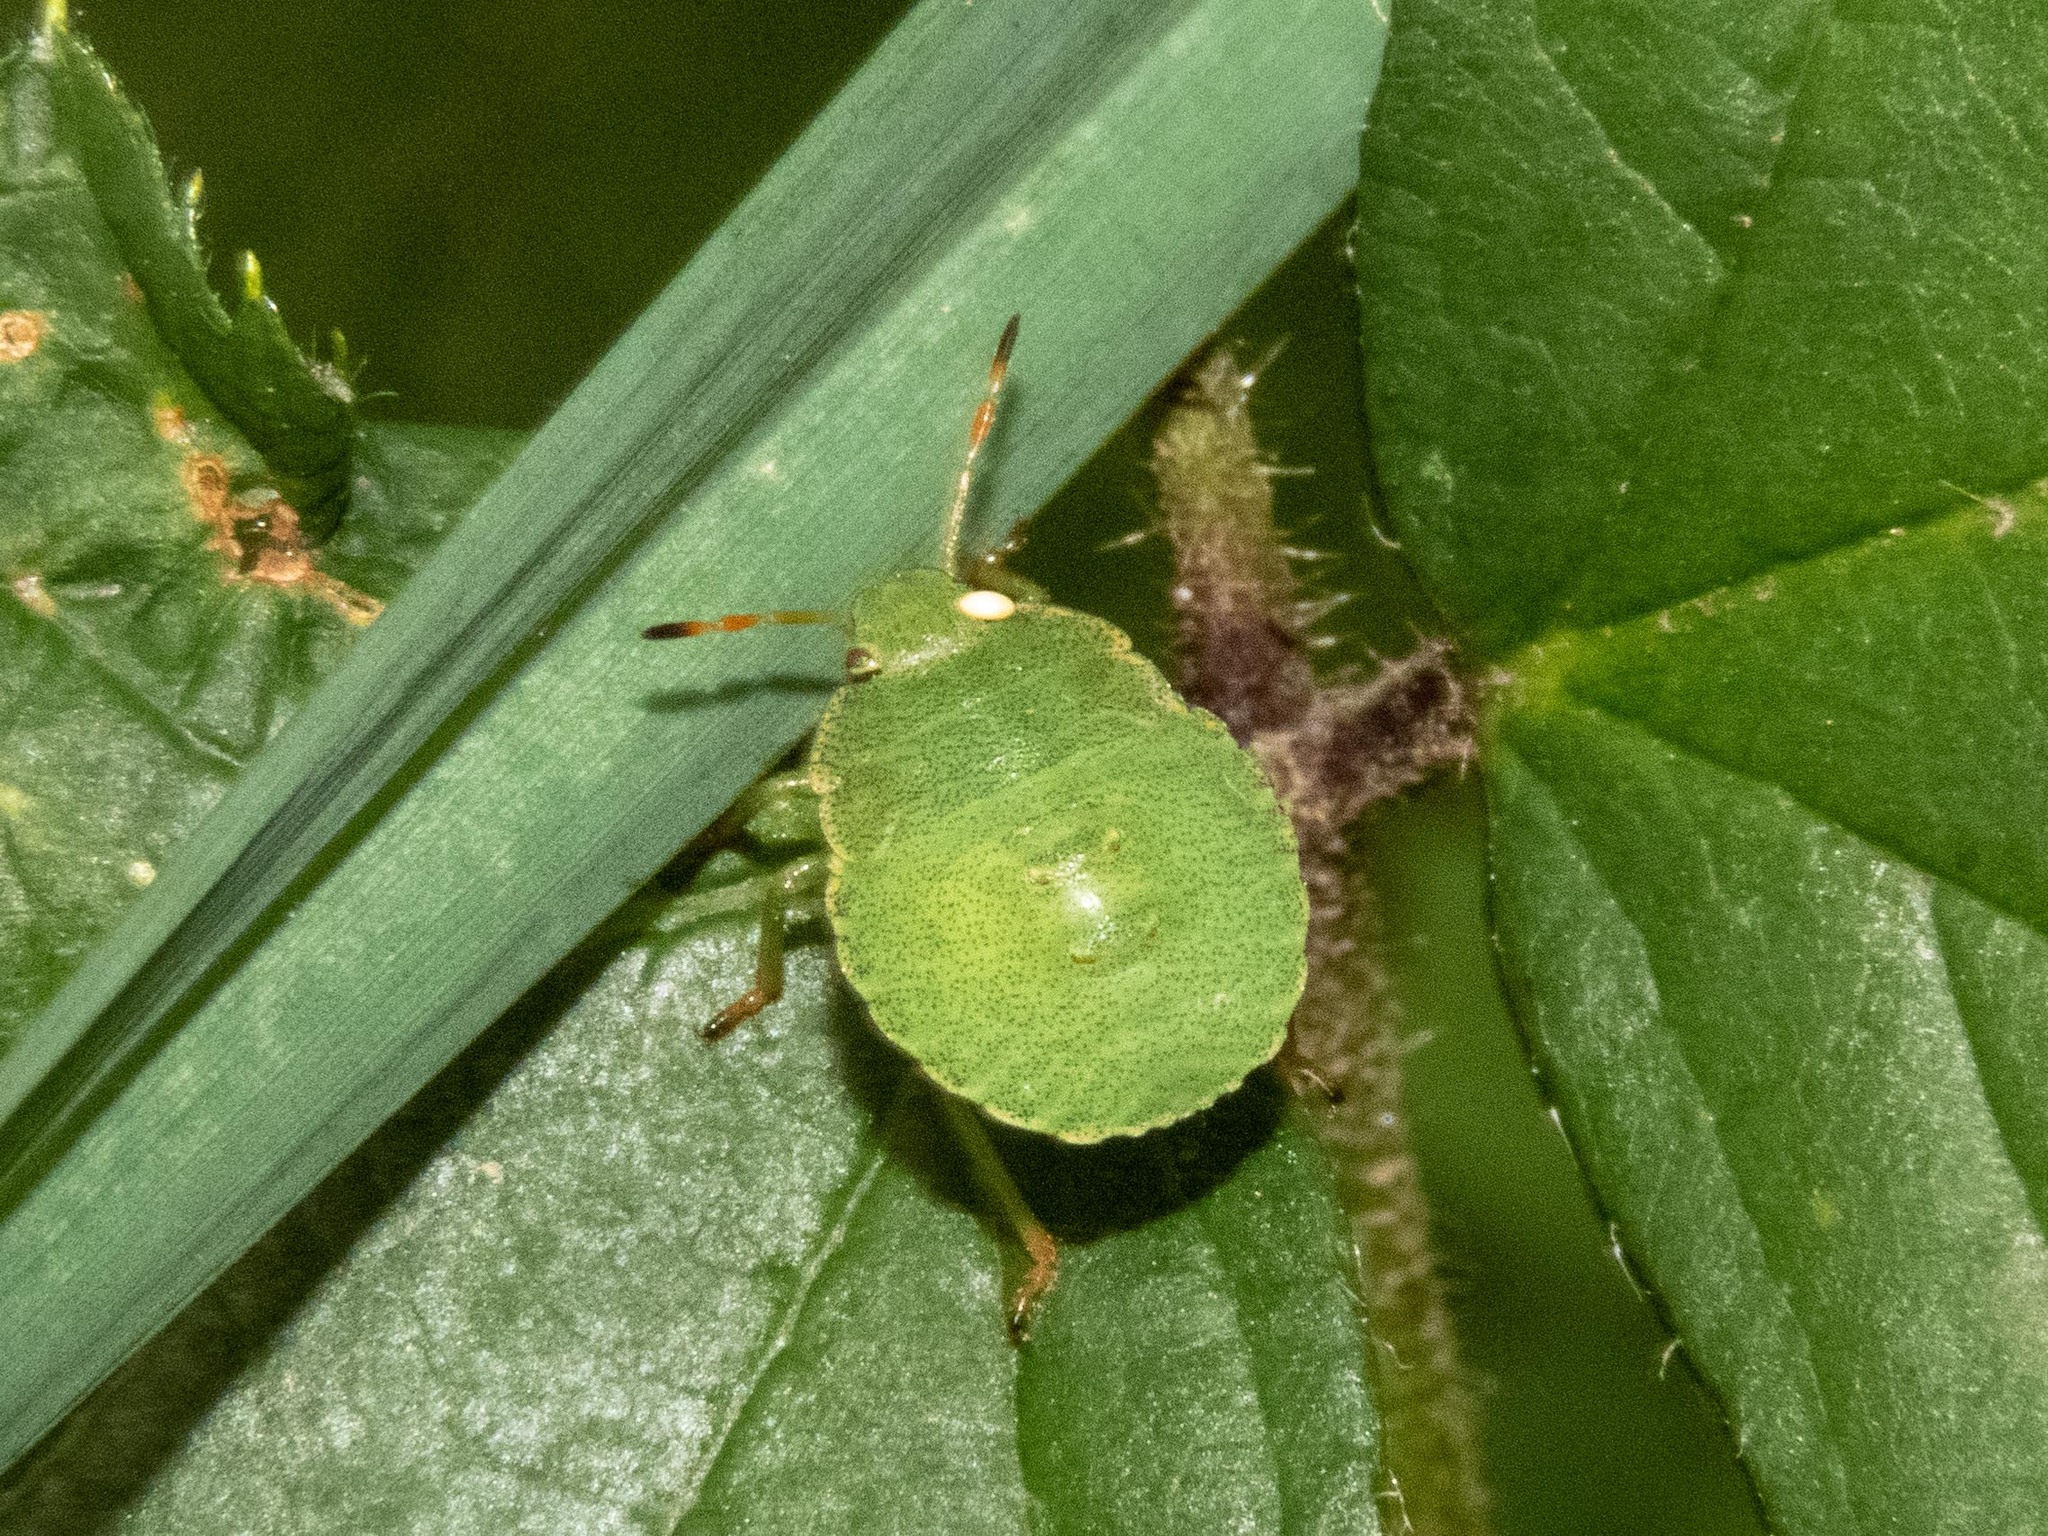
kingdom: Animalia
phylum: Arthropoda
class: Insecta
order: Hemiptera
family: Pentatomidae
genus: Palomena
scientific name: Palomena prasina
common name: Green shieldbug
